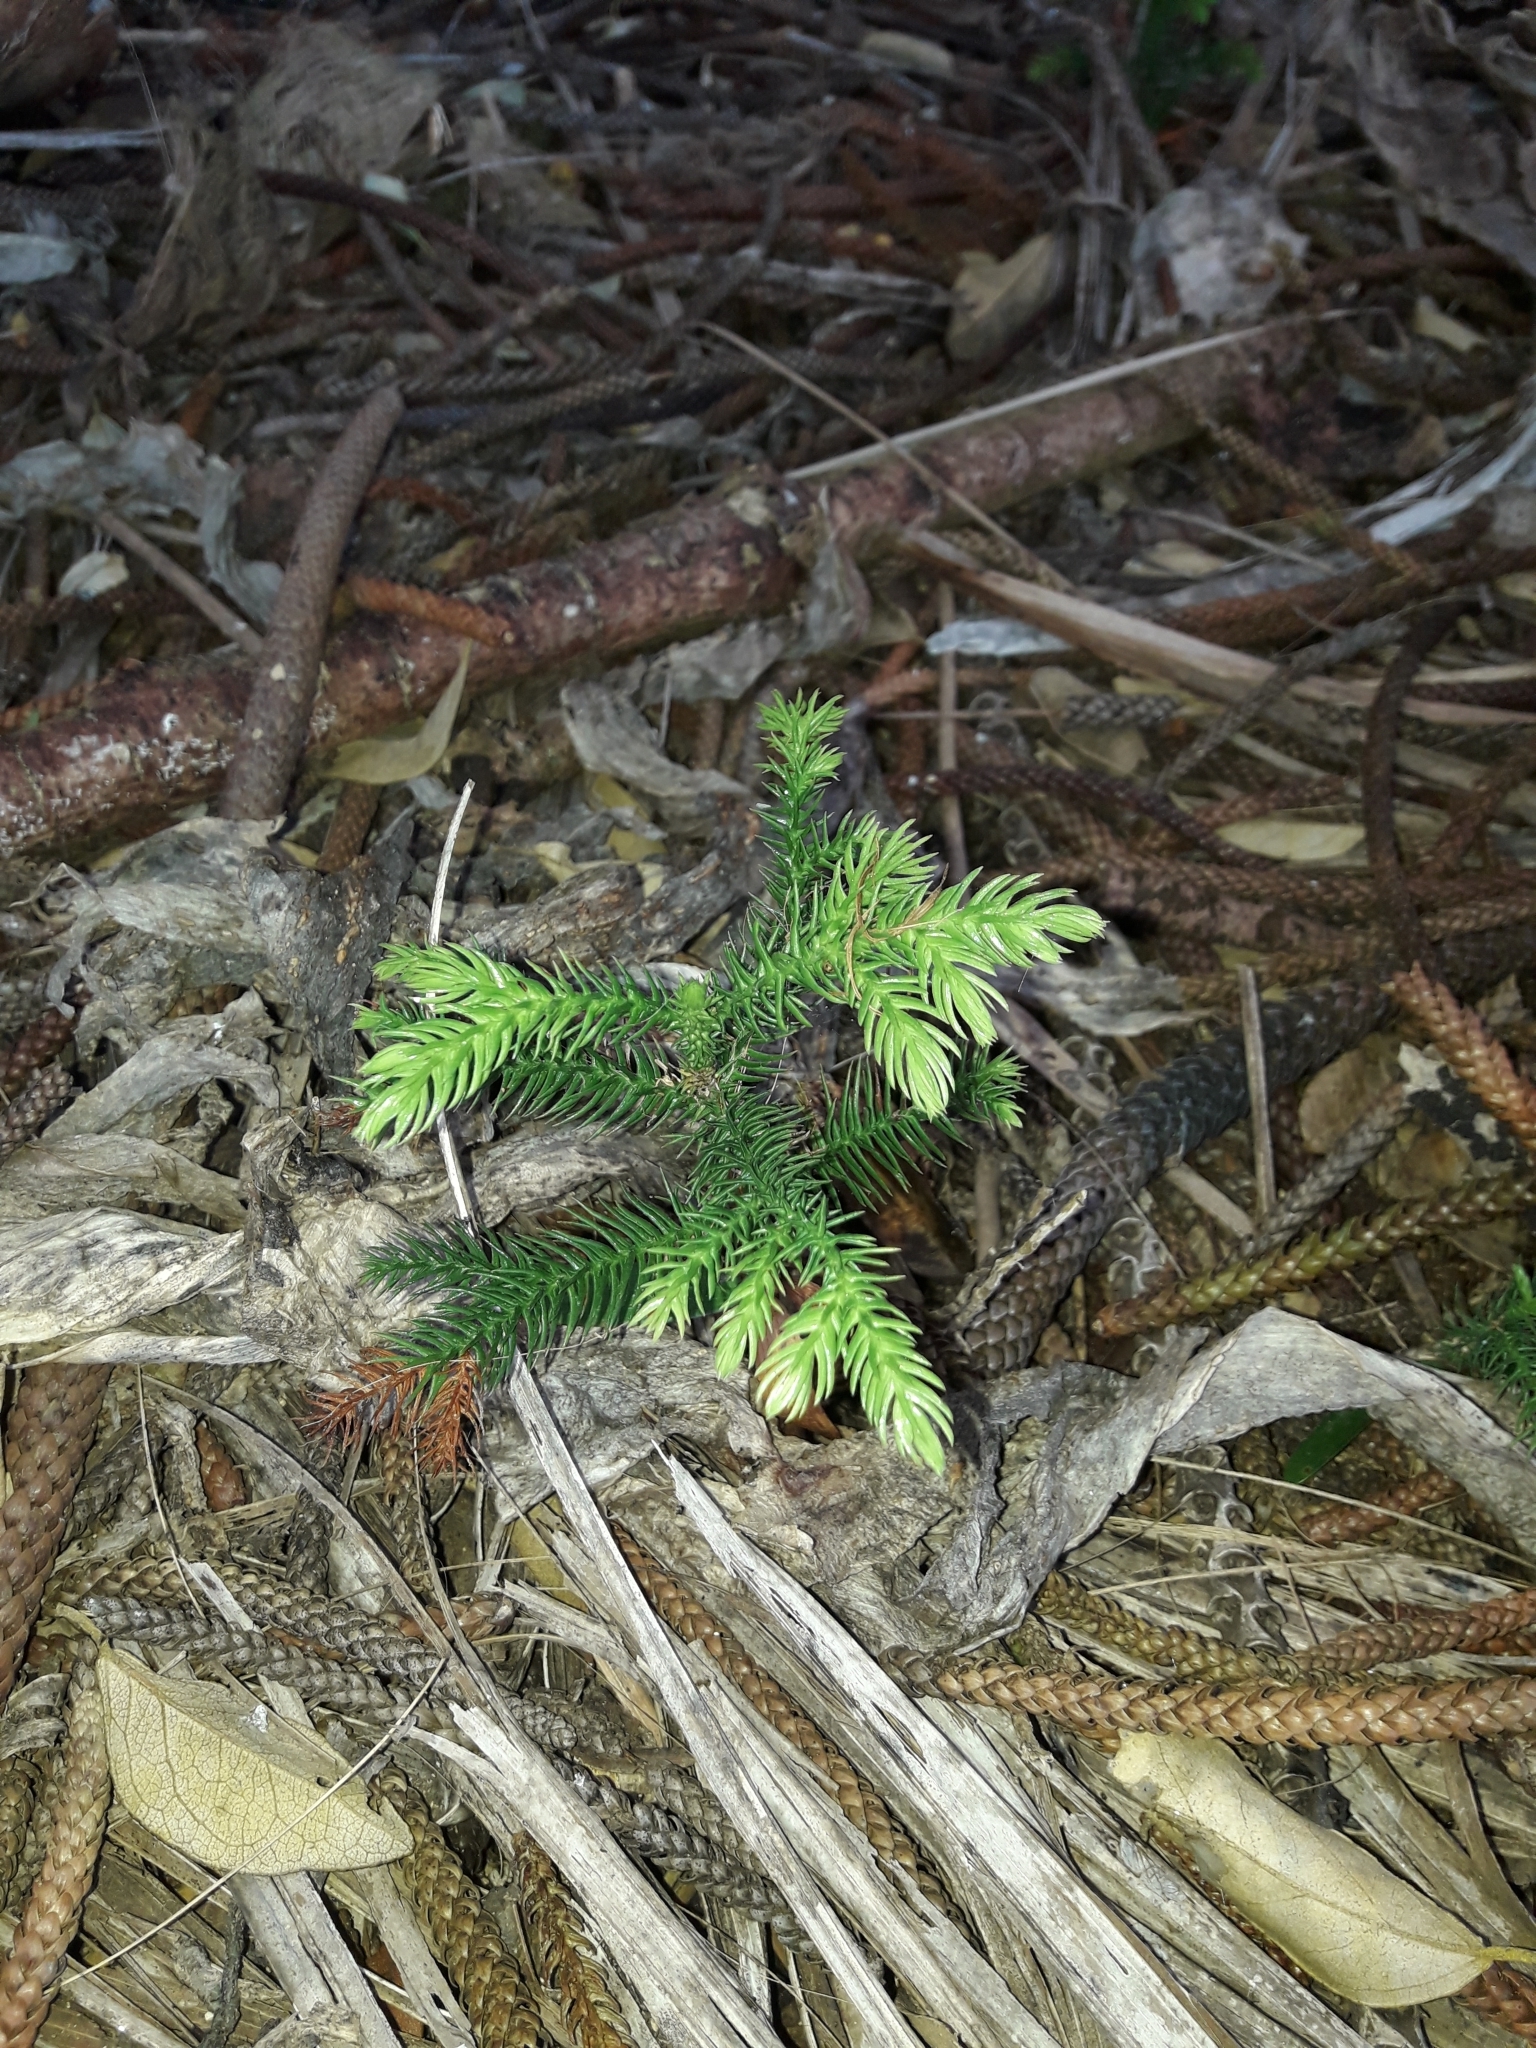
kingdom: Plantae
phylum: Tracheophyta
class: Pinopsida
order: Pinales
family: Araucariaceae
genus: Araucaria
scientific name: Araucaria heterophylla
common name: Norfolk island pine
